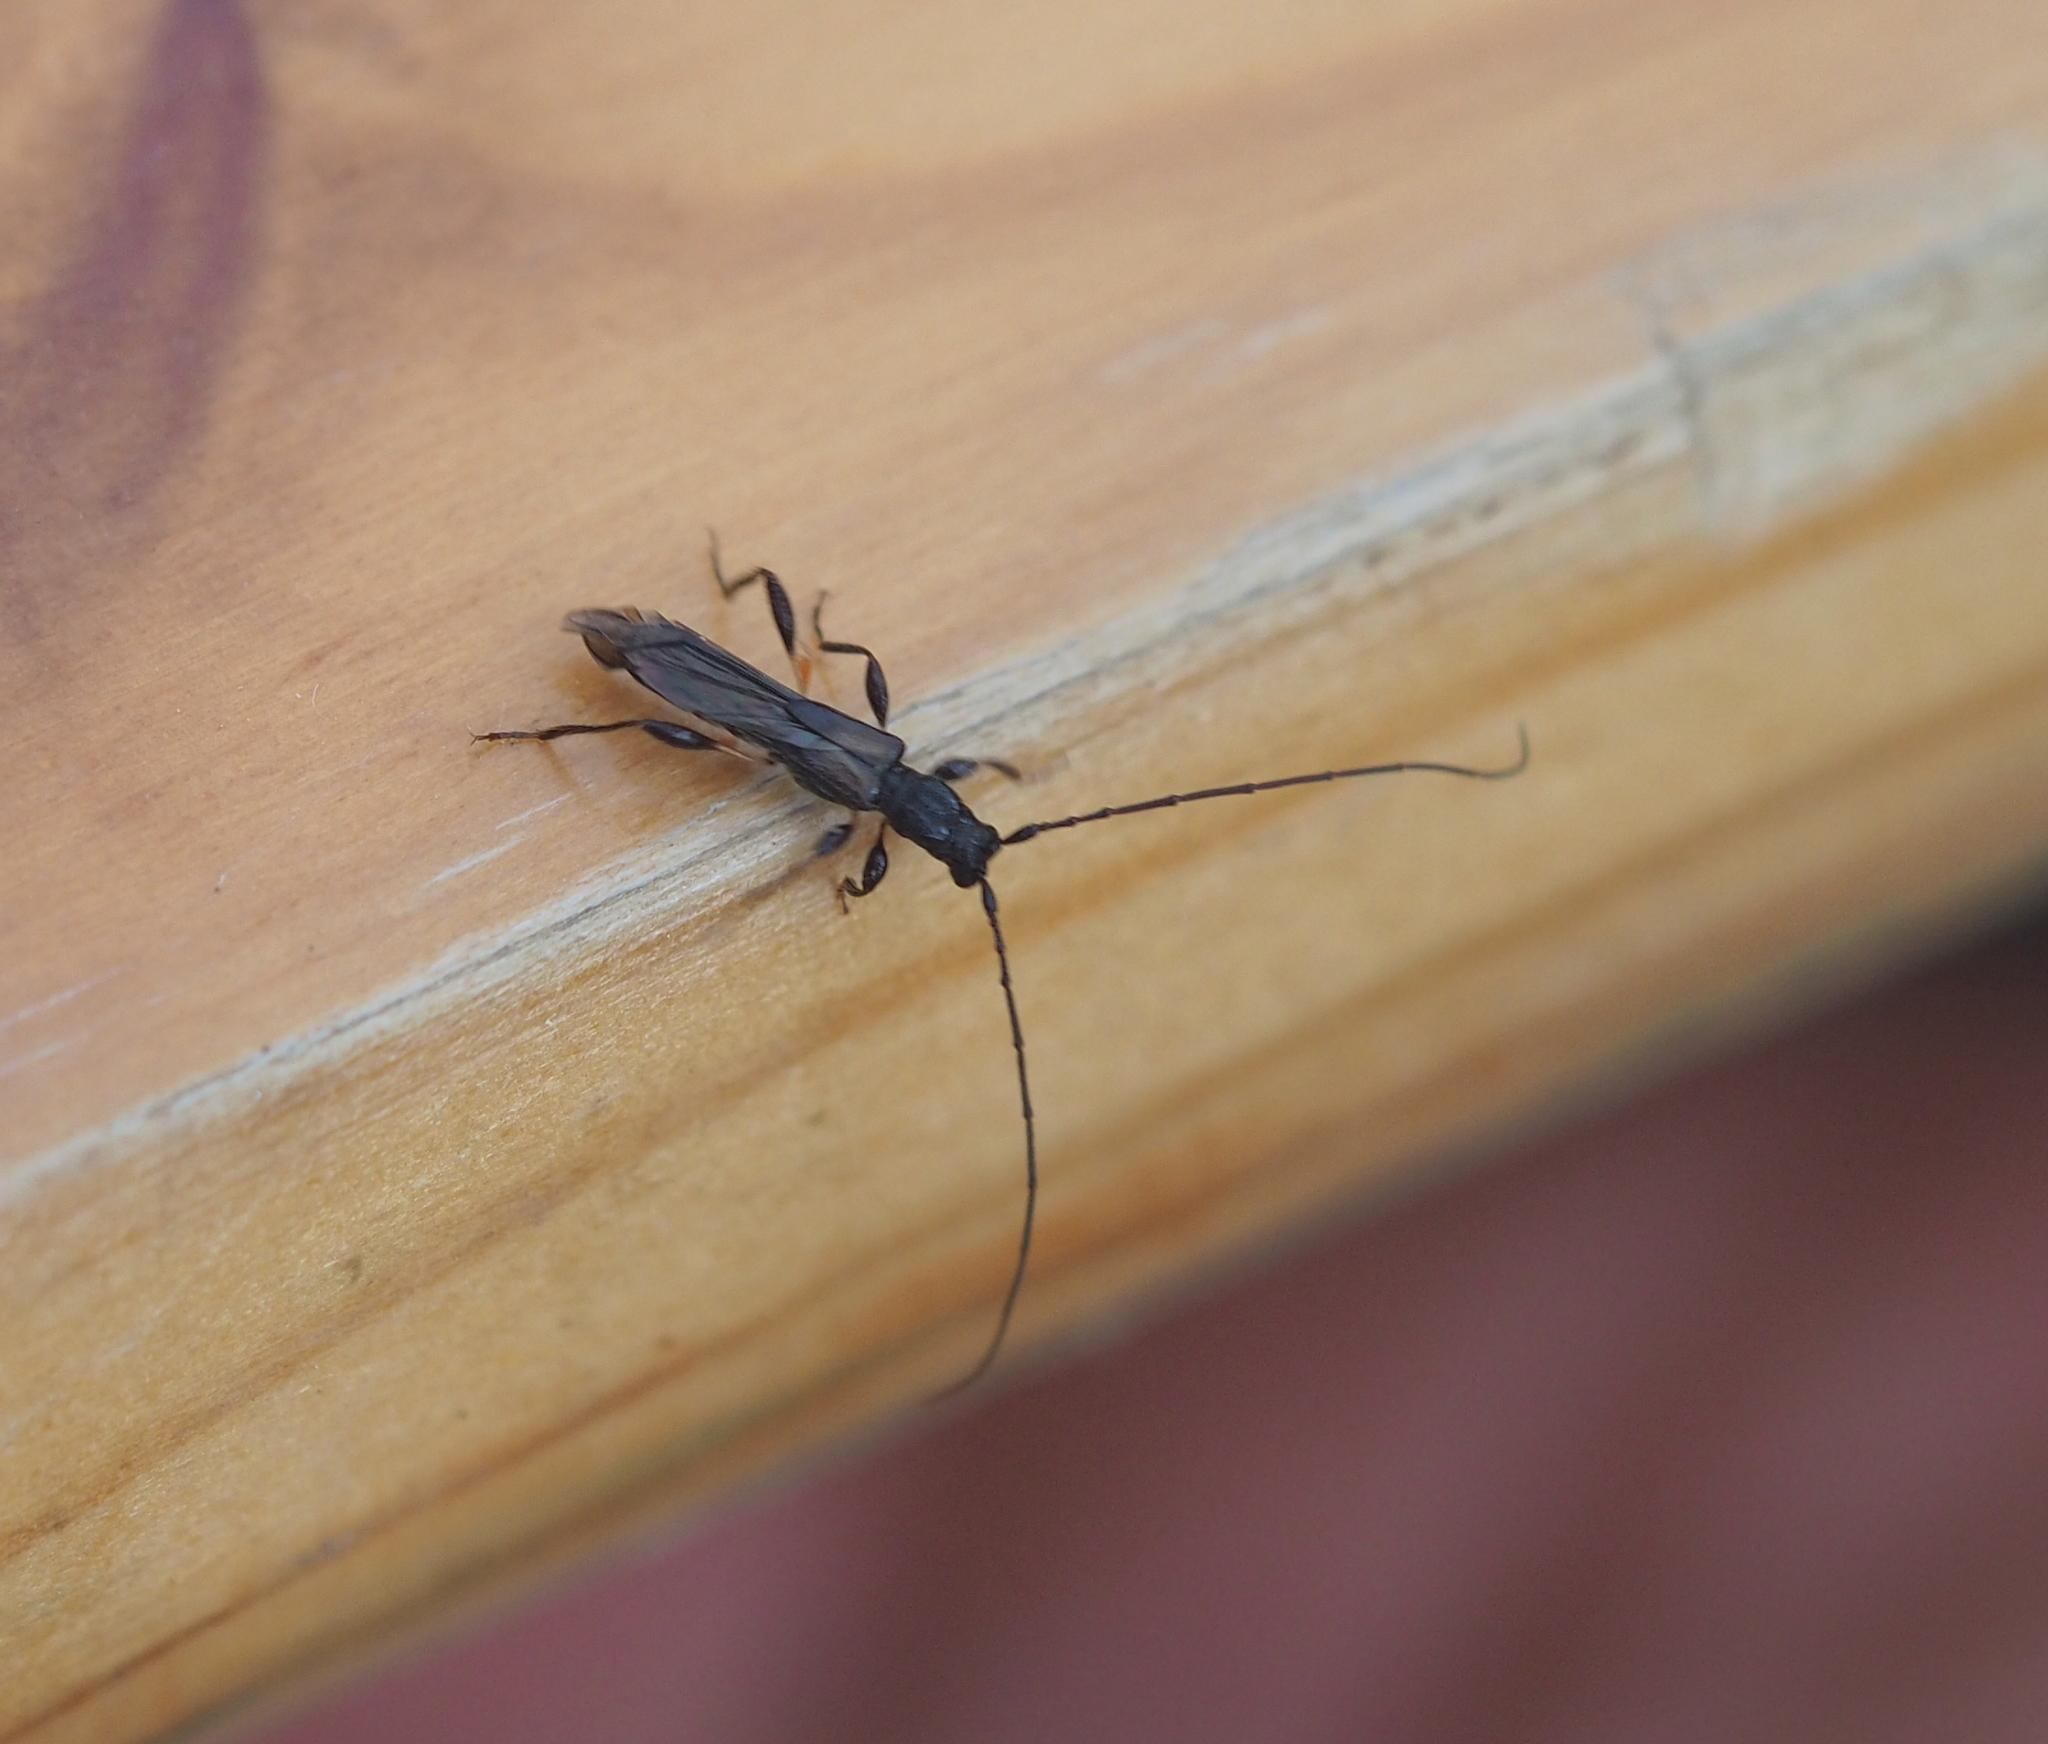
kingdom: Animalia
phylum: Arthropoda
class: Insecta
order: Coleoptera
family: Cerambycidae
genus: Molorchus
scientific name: Molorchus umbellatarum
